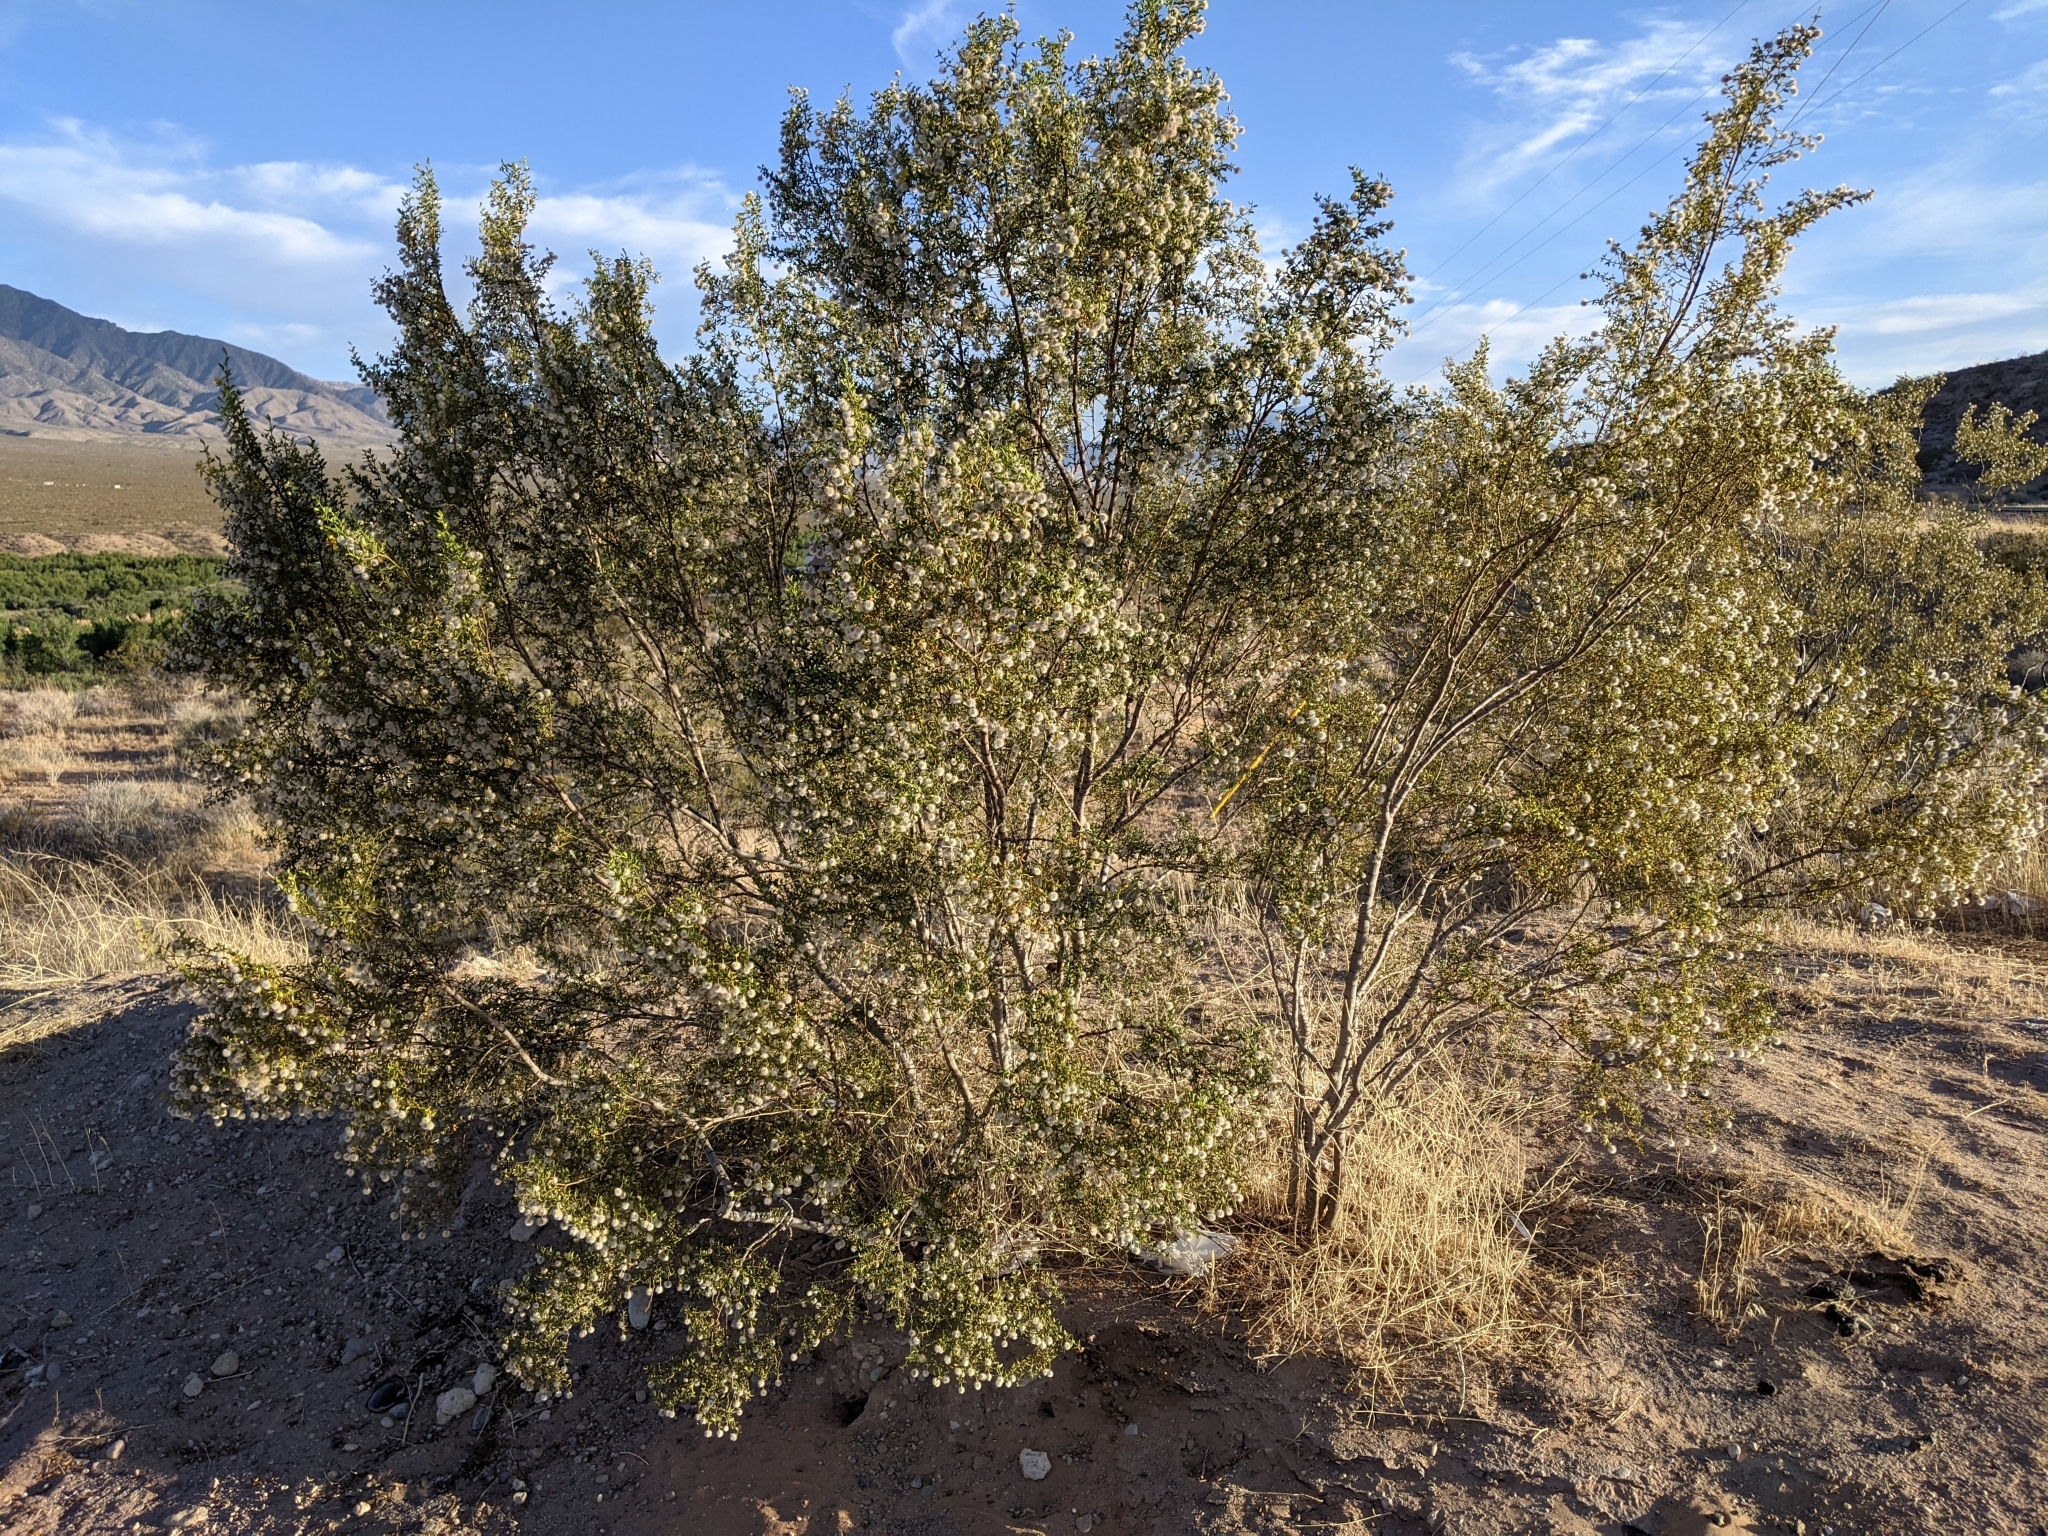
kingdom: Plantae
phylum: Tracheophyta
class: Magnoliopsida
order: Zygophyllales
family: Zygophyllaceae
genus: Larrea
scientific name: Larrea tridentata
